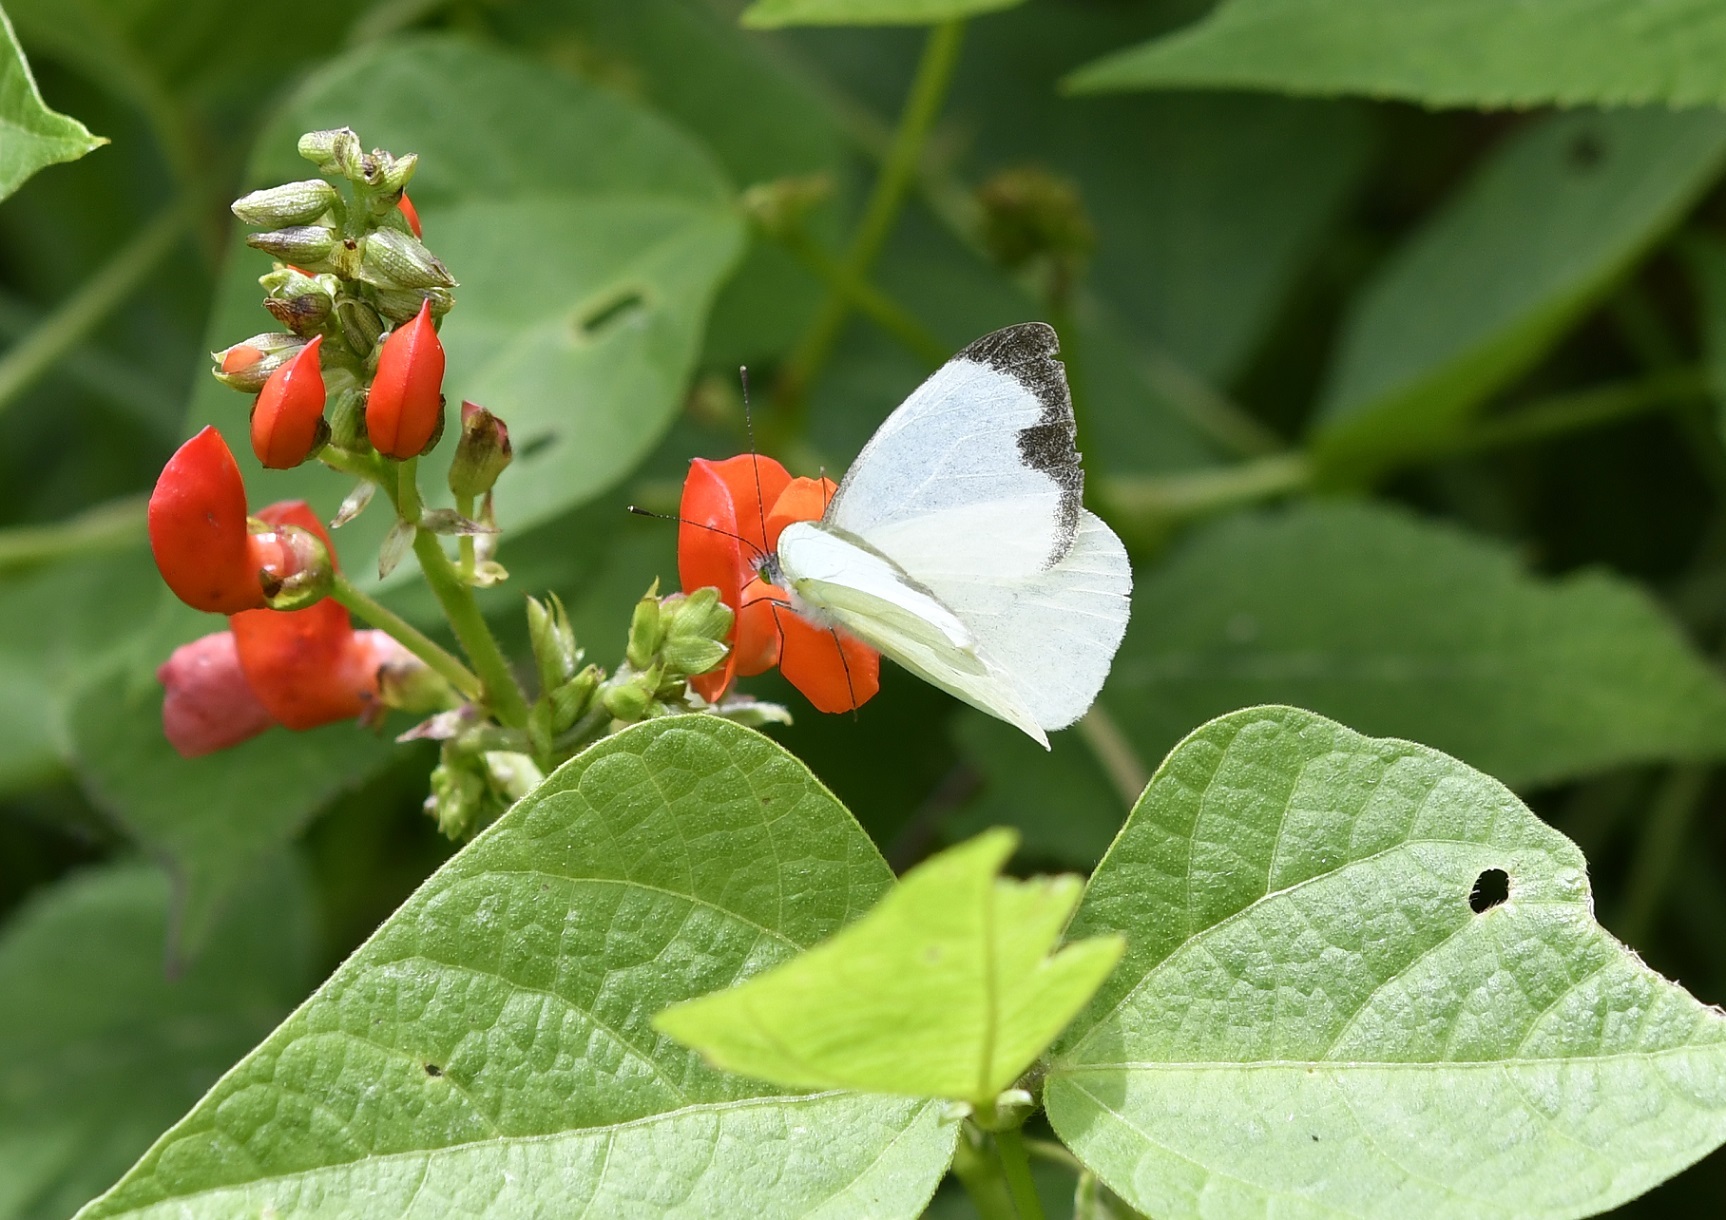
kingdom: Animalia
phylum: Arthropoda
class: Insecta
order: Lepidoptera
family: Pieridae
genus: Leptophobia
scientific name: Leptophobia aripa
